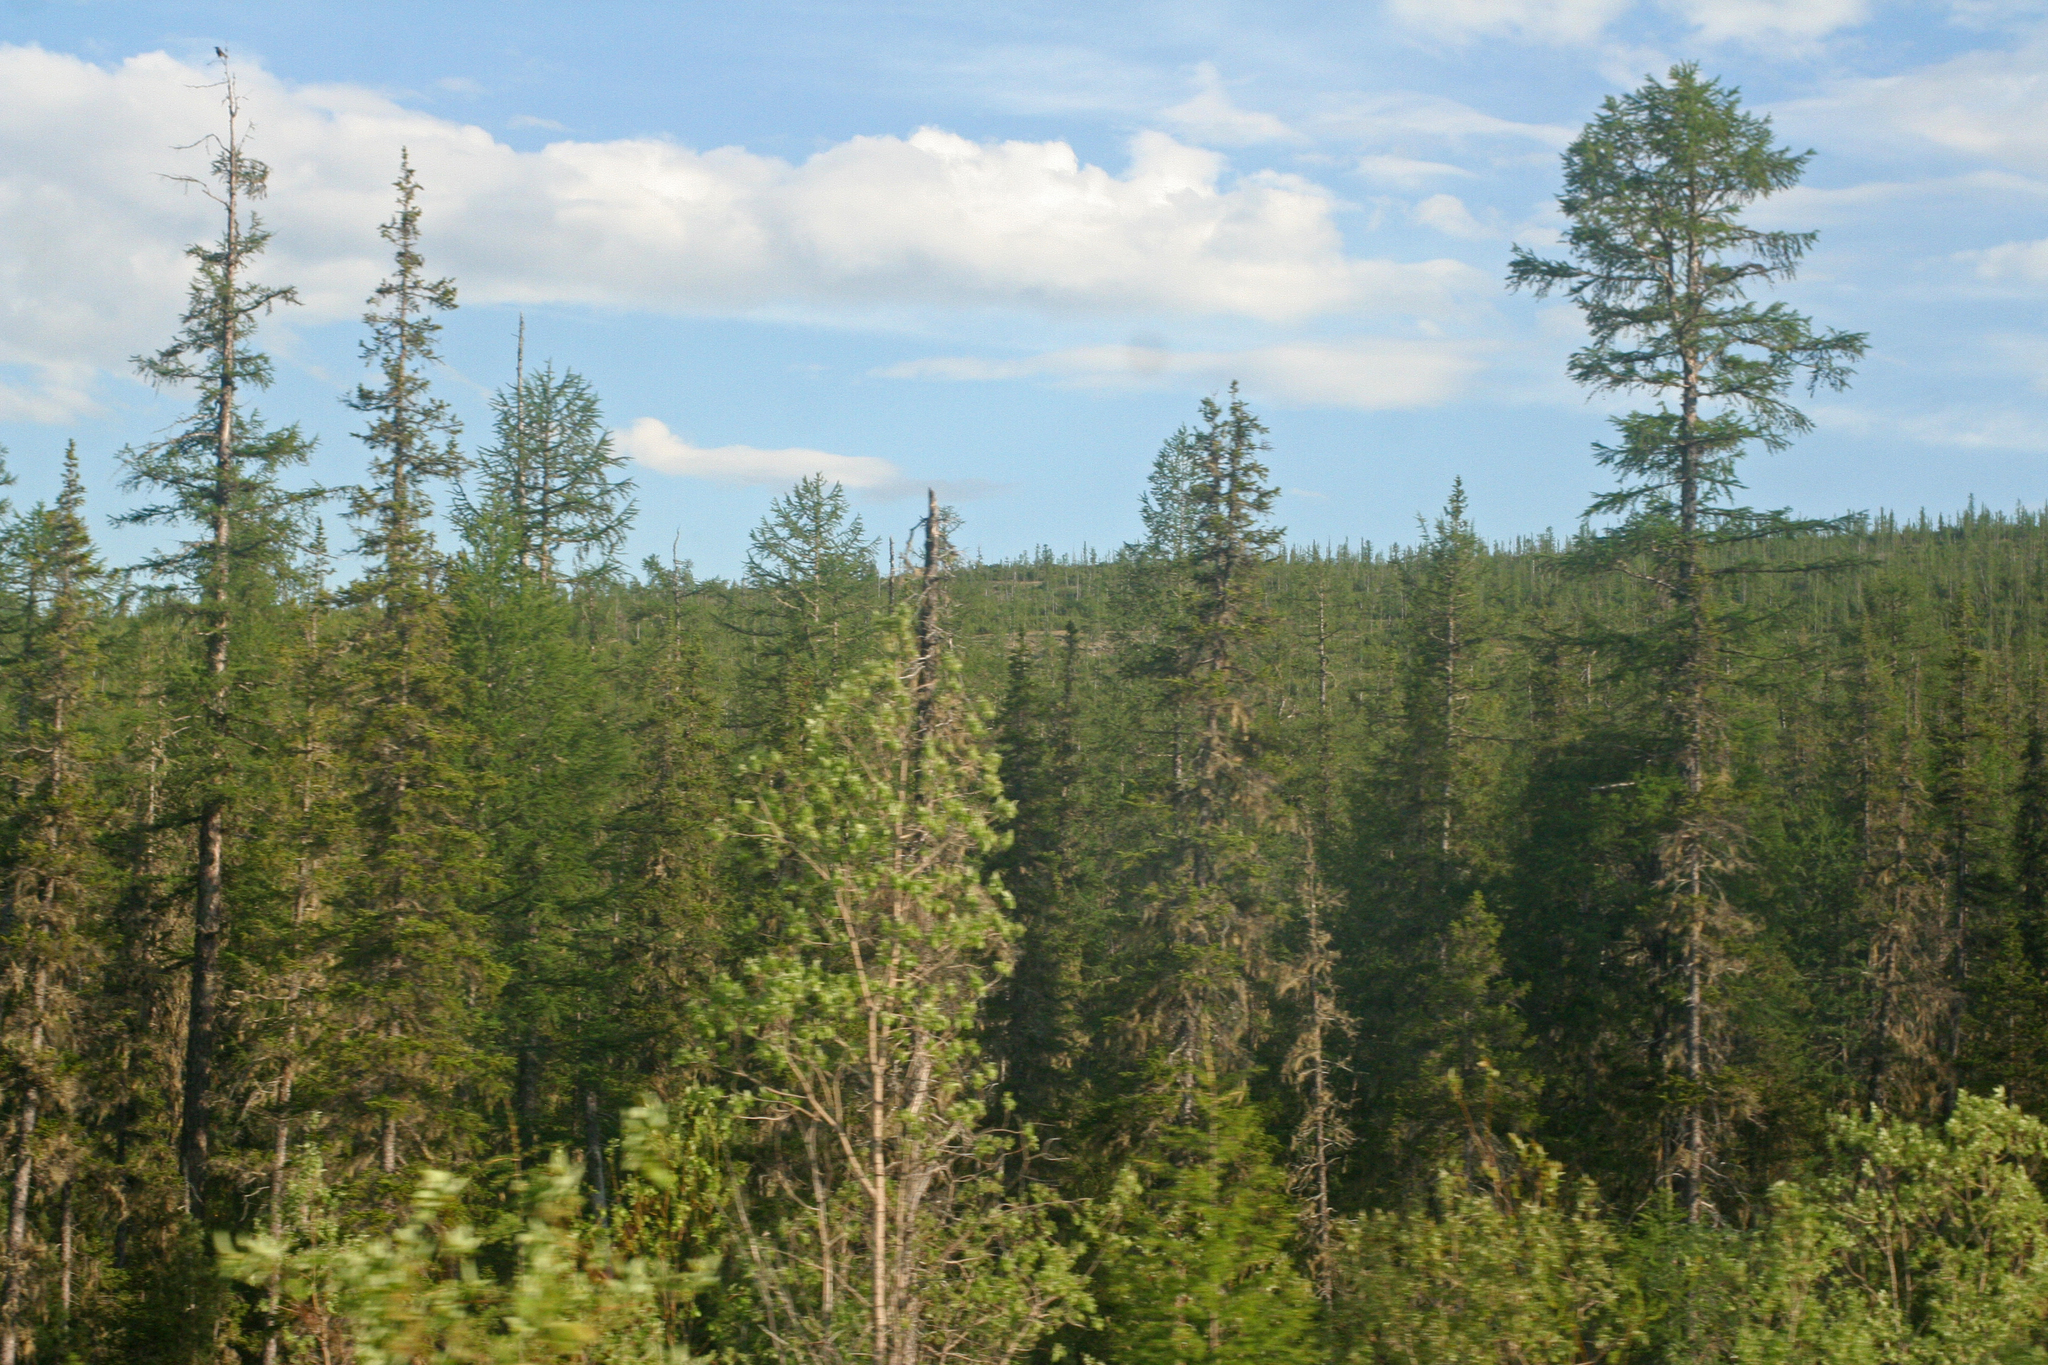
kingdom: Plantae
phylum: Tracheophyta
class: Pinopsida
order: Pinales
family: Pinaceae
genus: Larix
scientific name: Larix gmelinii
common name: Dahurian larch
